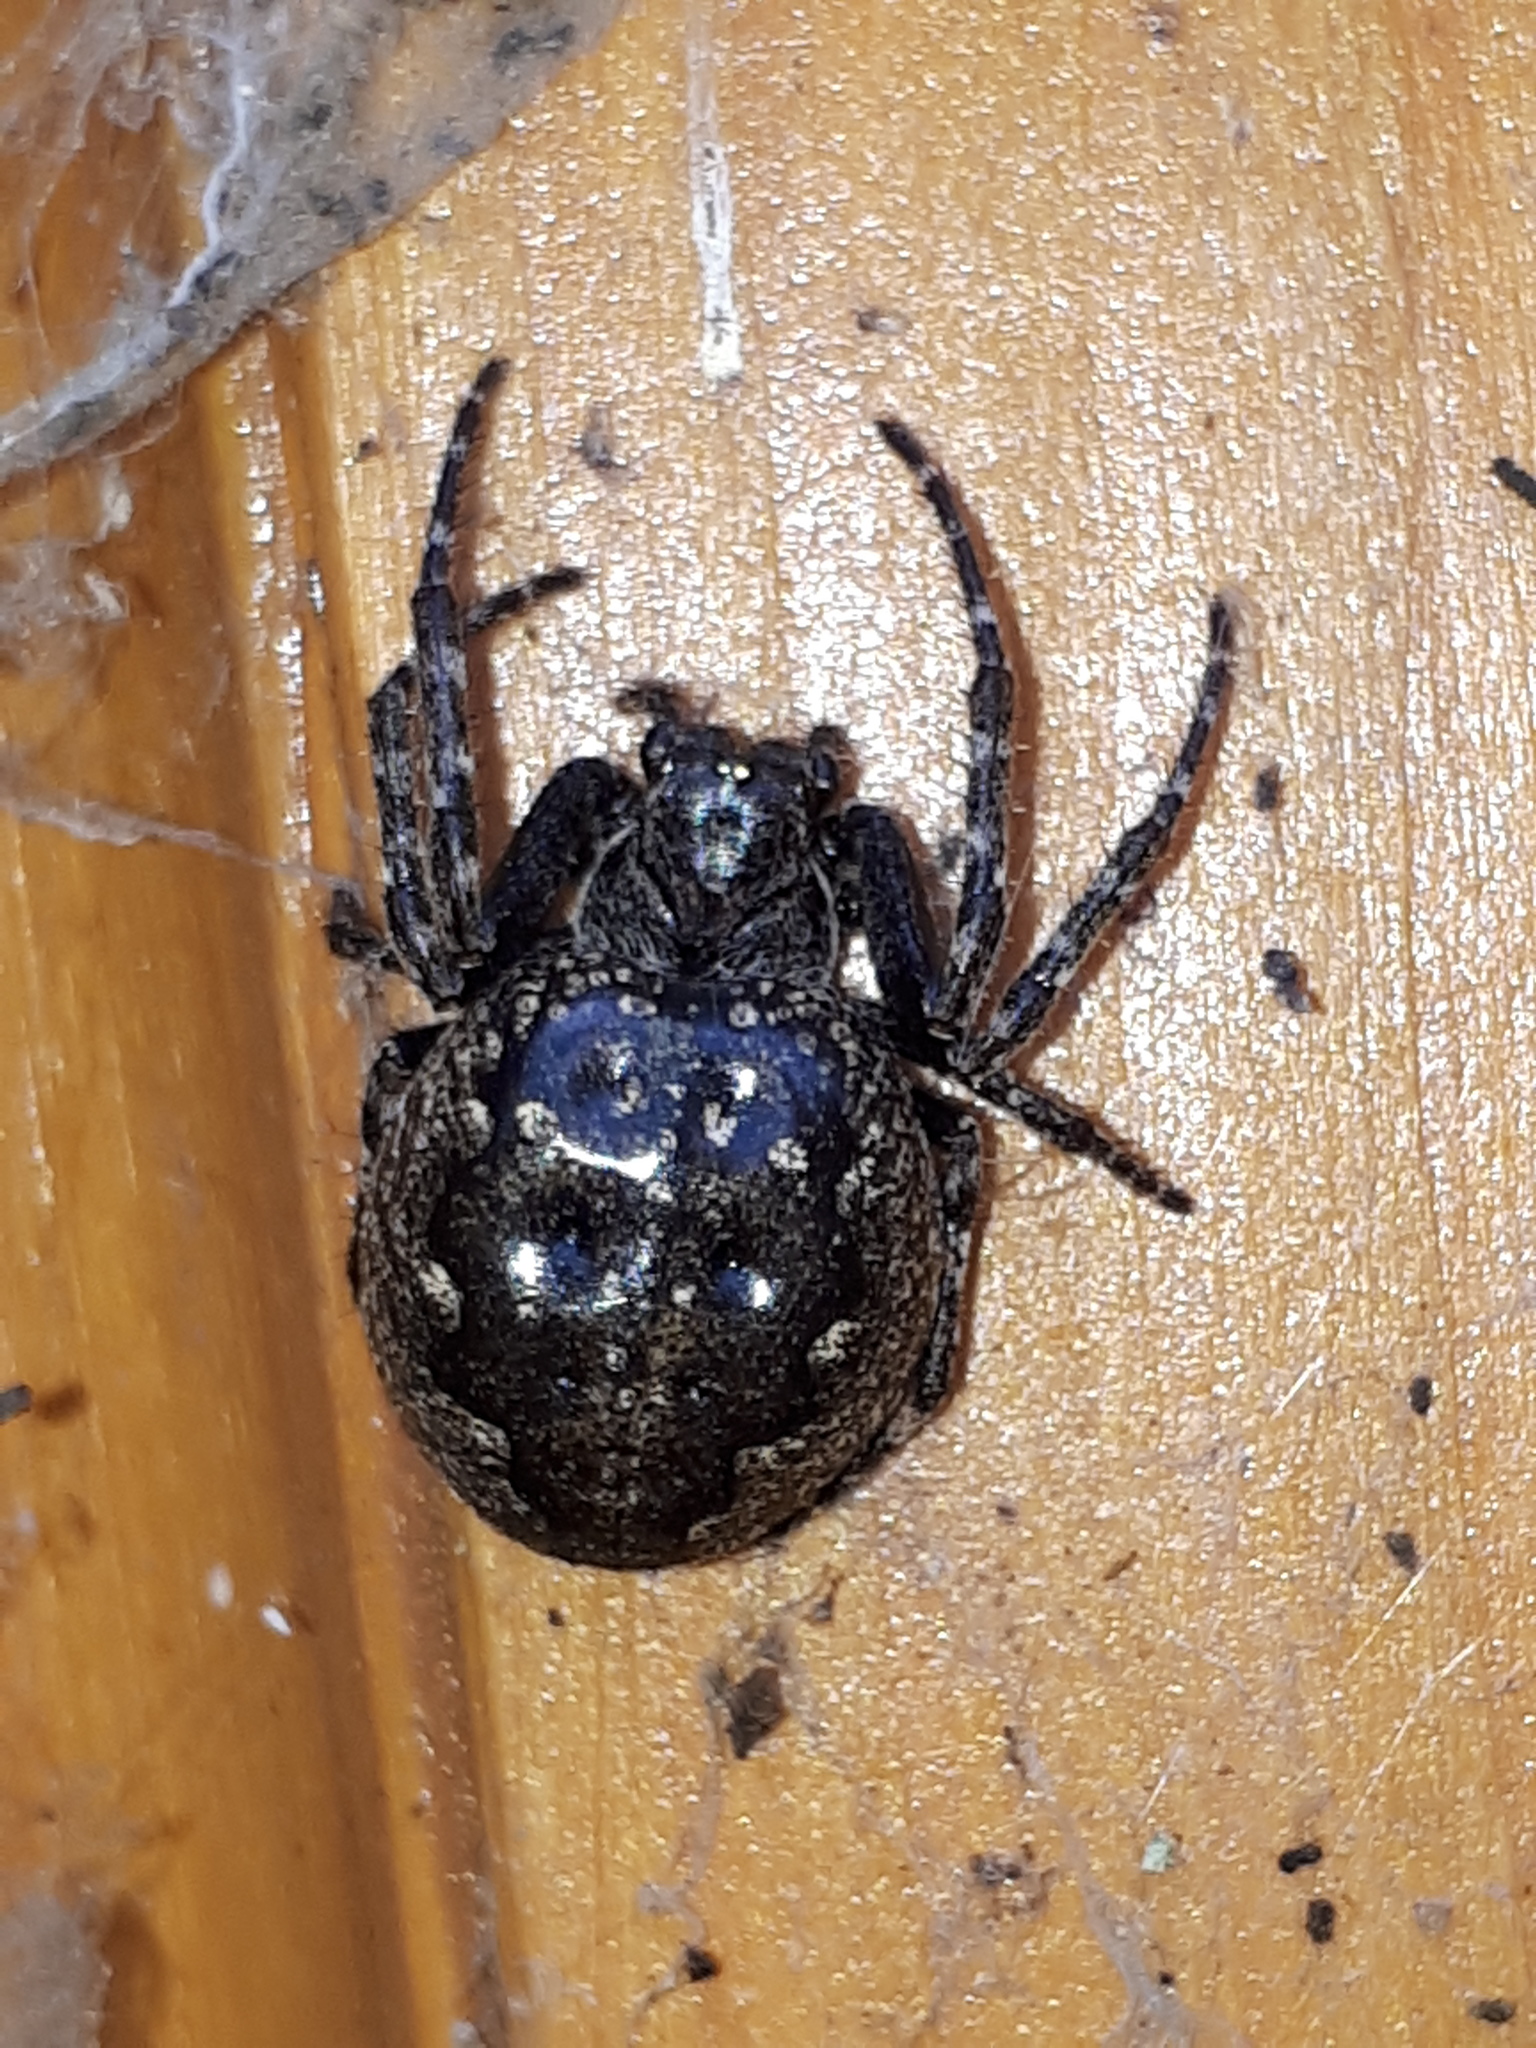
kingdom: Animalia
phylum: Arthropoda
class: Arachnida
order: Araneae
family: Araneidae
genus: Nuctenea
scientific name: Nuctenea umbratica
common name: Toad spider
